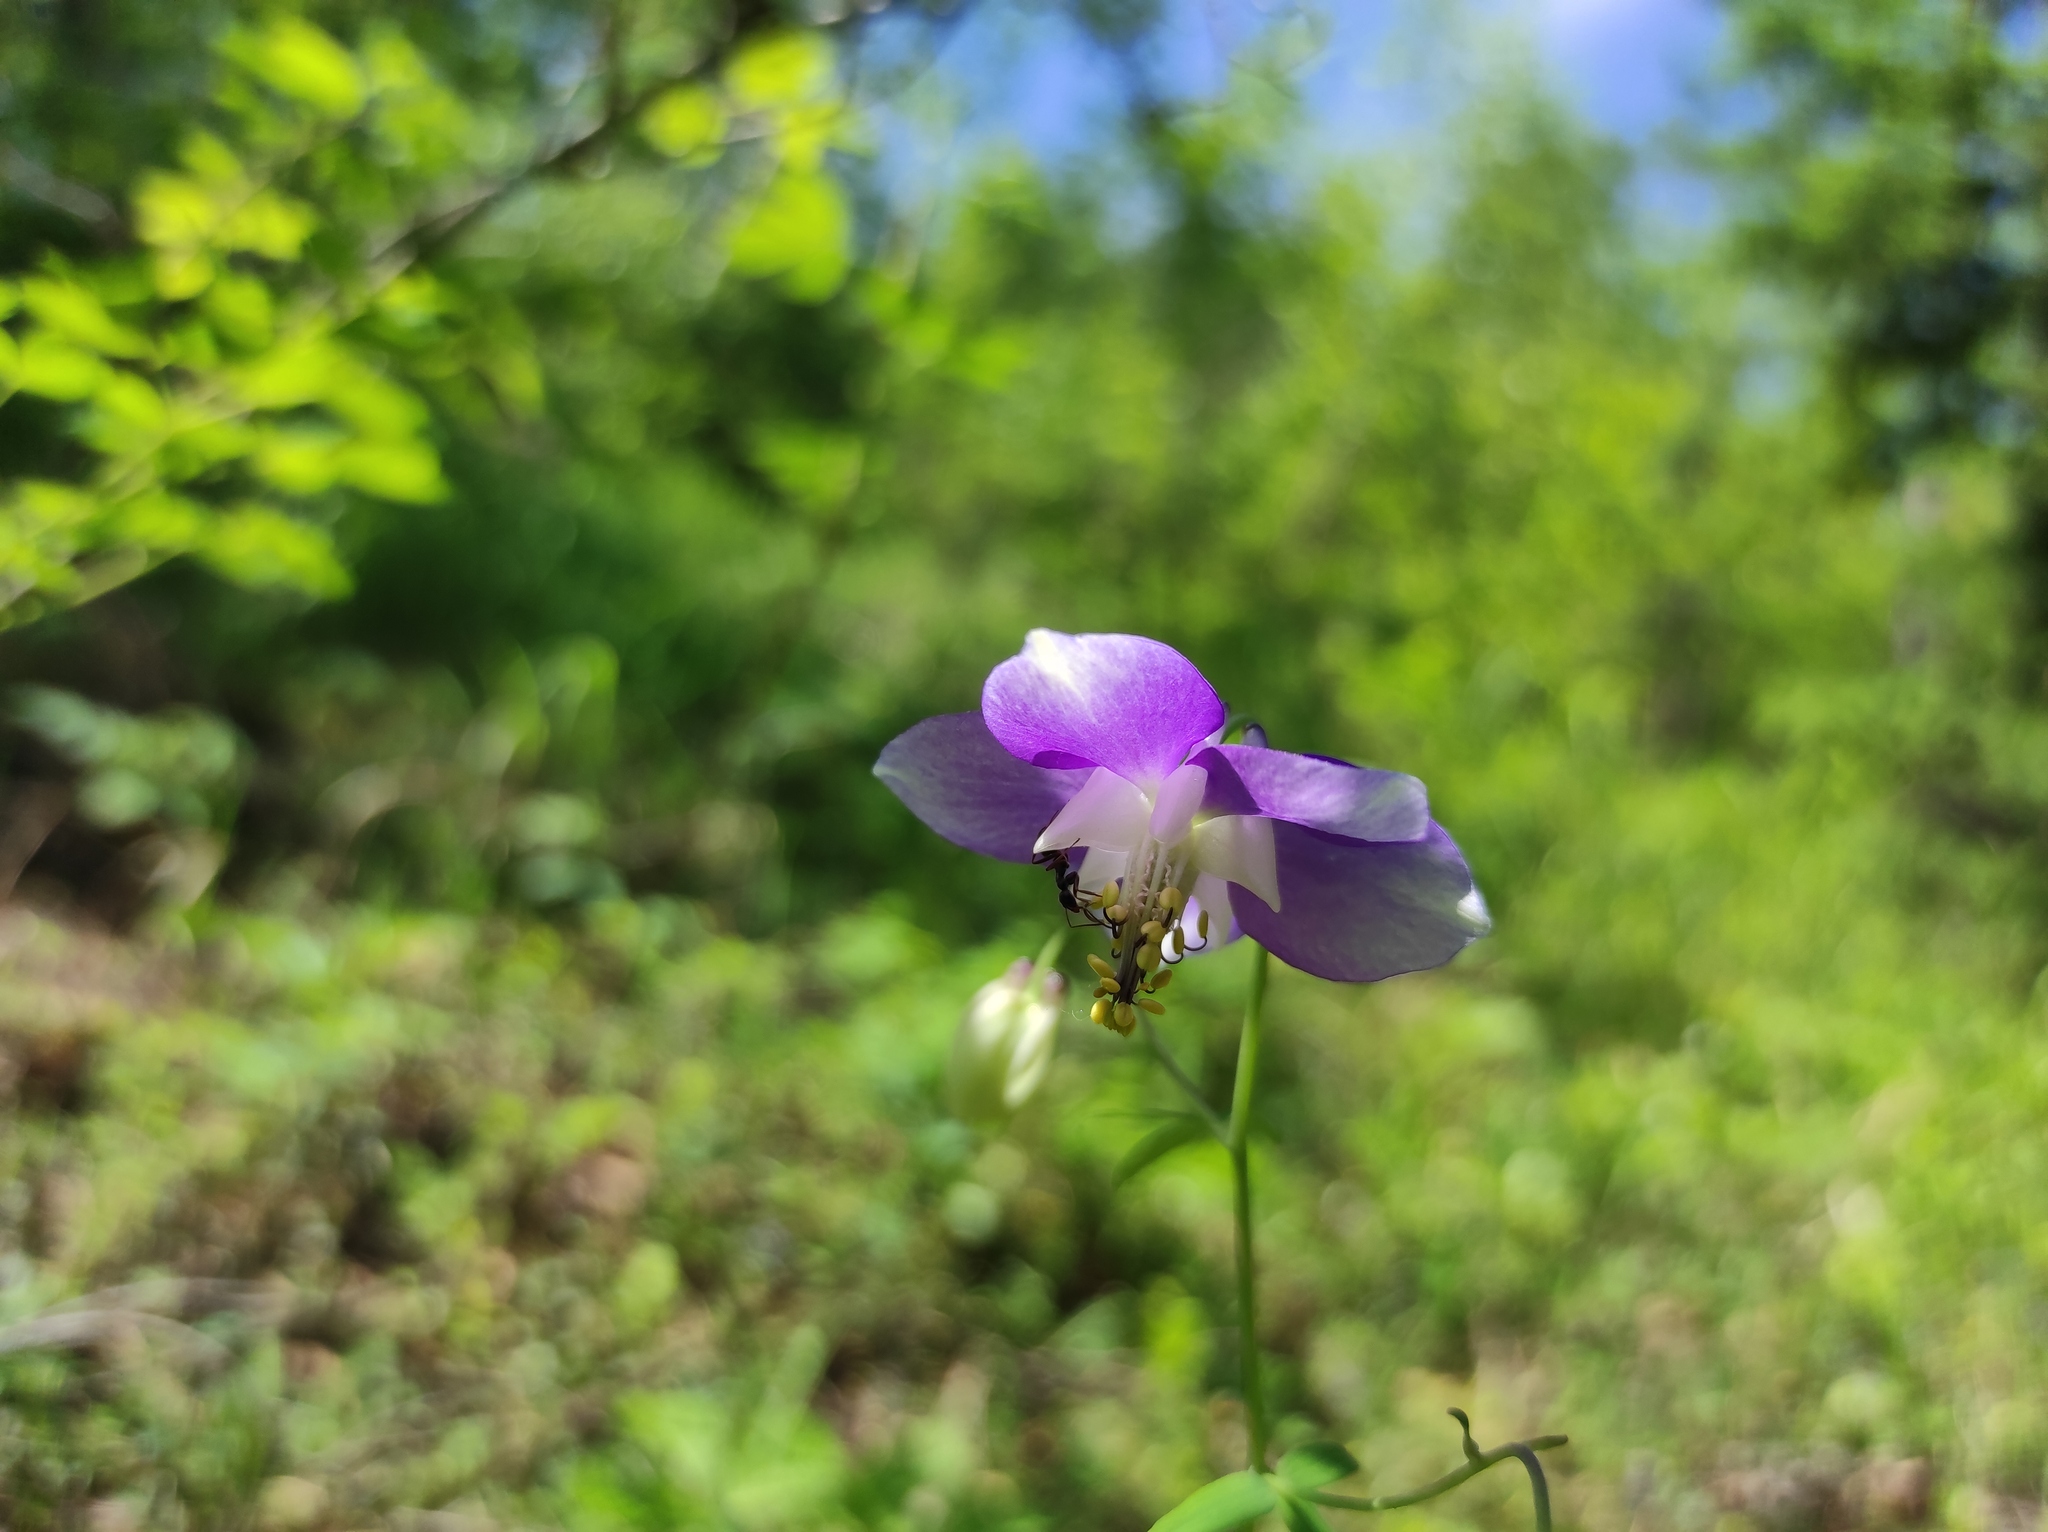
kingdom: Plantae
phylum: Tracheophyta
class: Magnoliopsida
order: Ranunculales
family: Ranunculaceae
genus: Aquilegia
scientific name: Aquilegia parviflora
